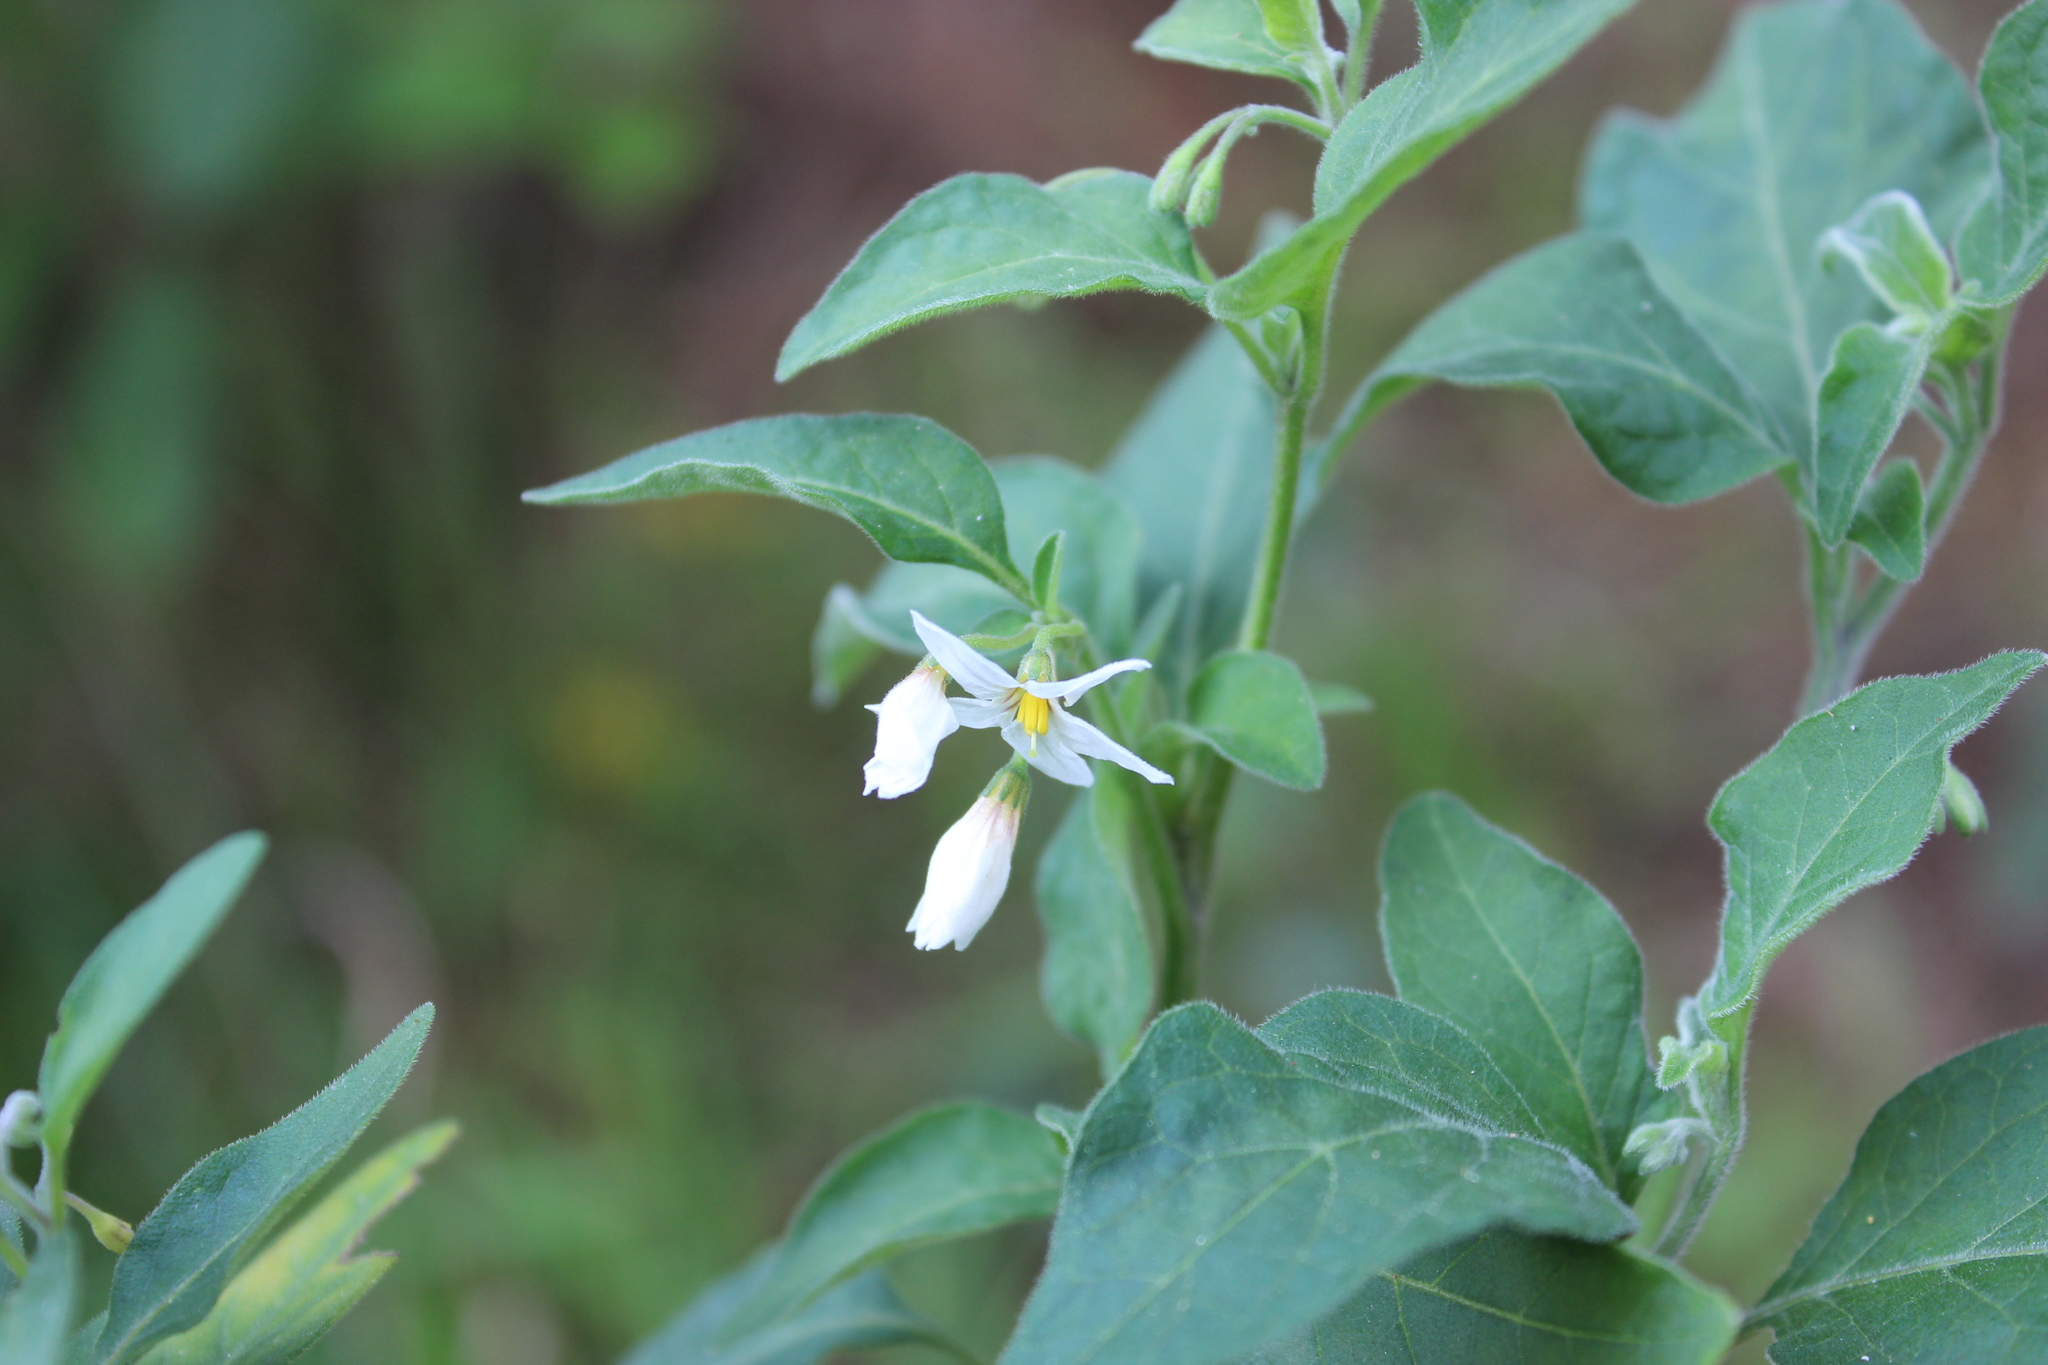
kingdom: Plantae
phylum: Tracheophyta
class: Magnoliopsida
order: Solanales
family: Solanaceae
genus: Solanum
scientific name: Solanum chenopodioides
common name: Tall nightshade
